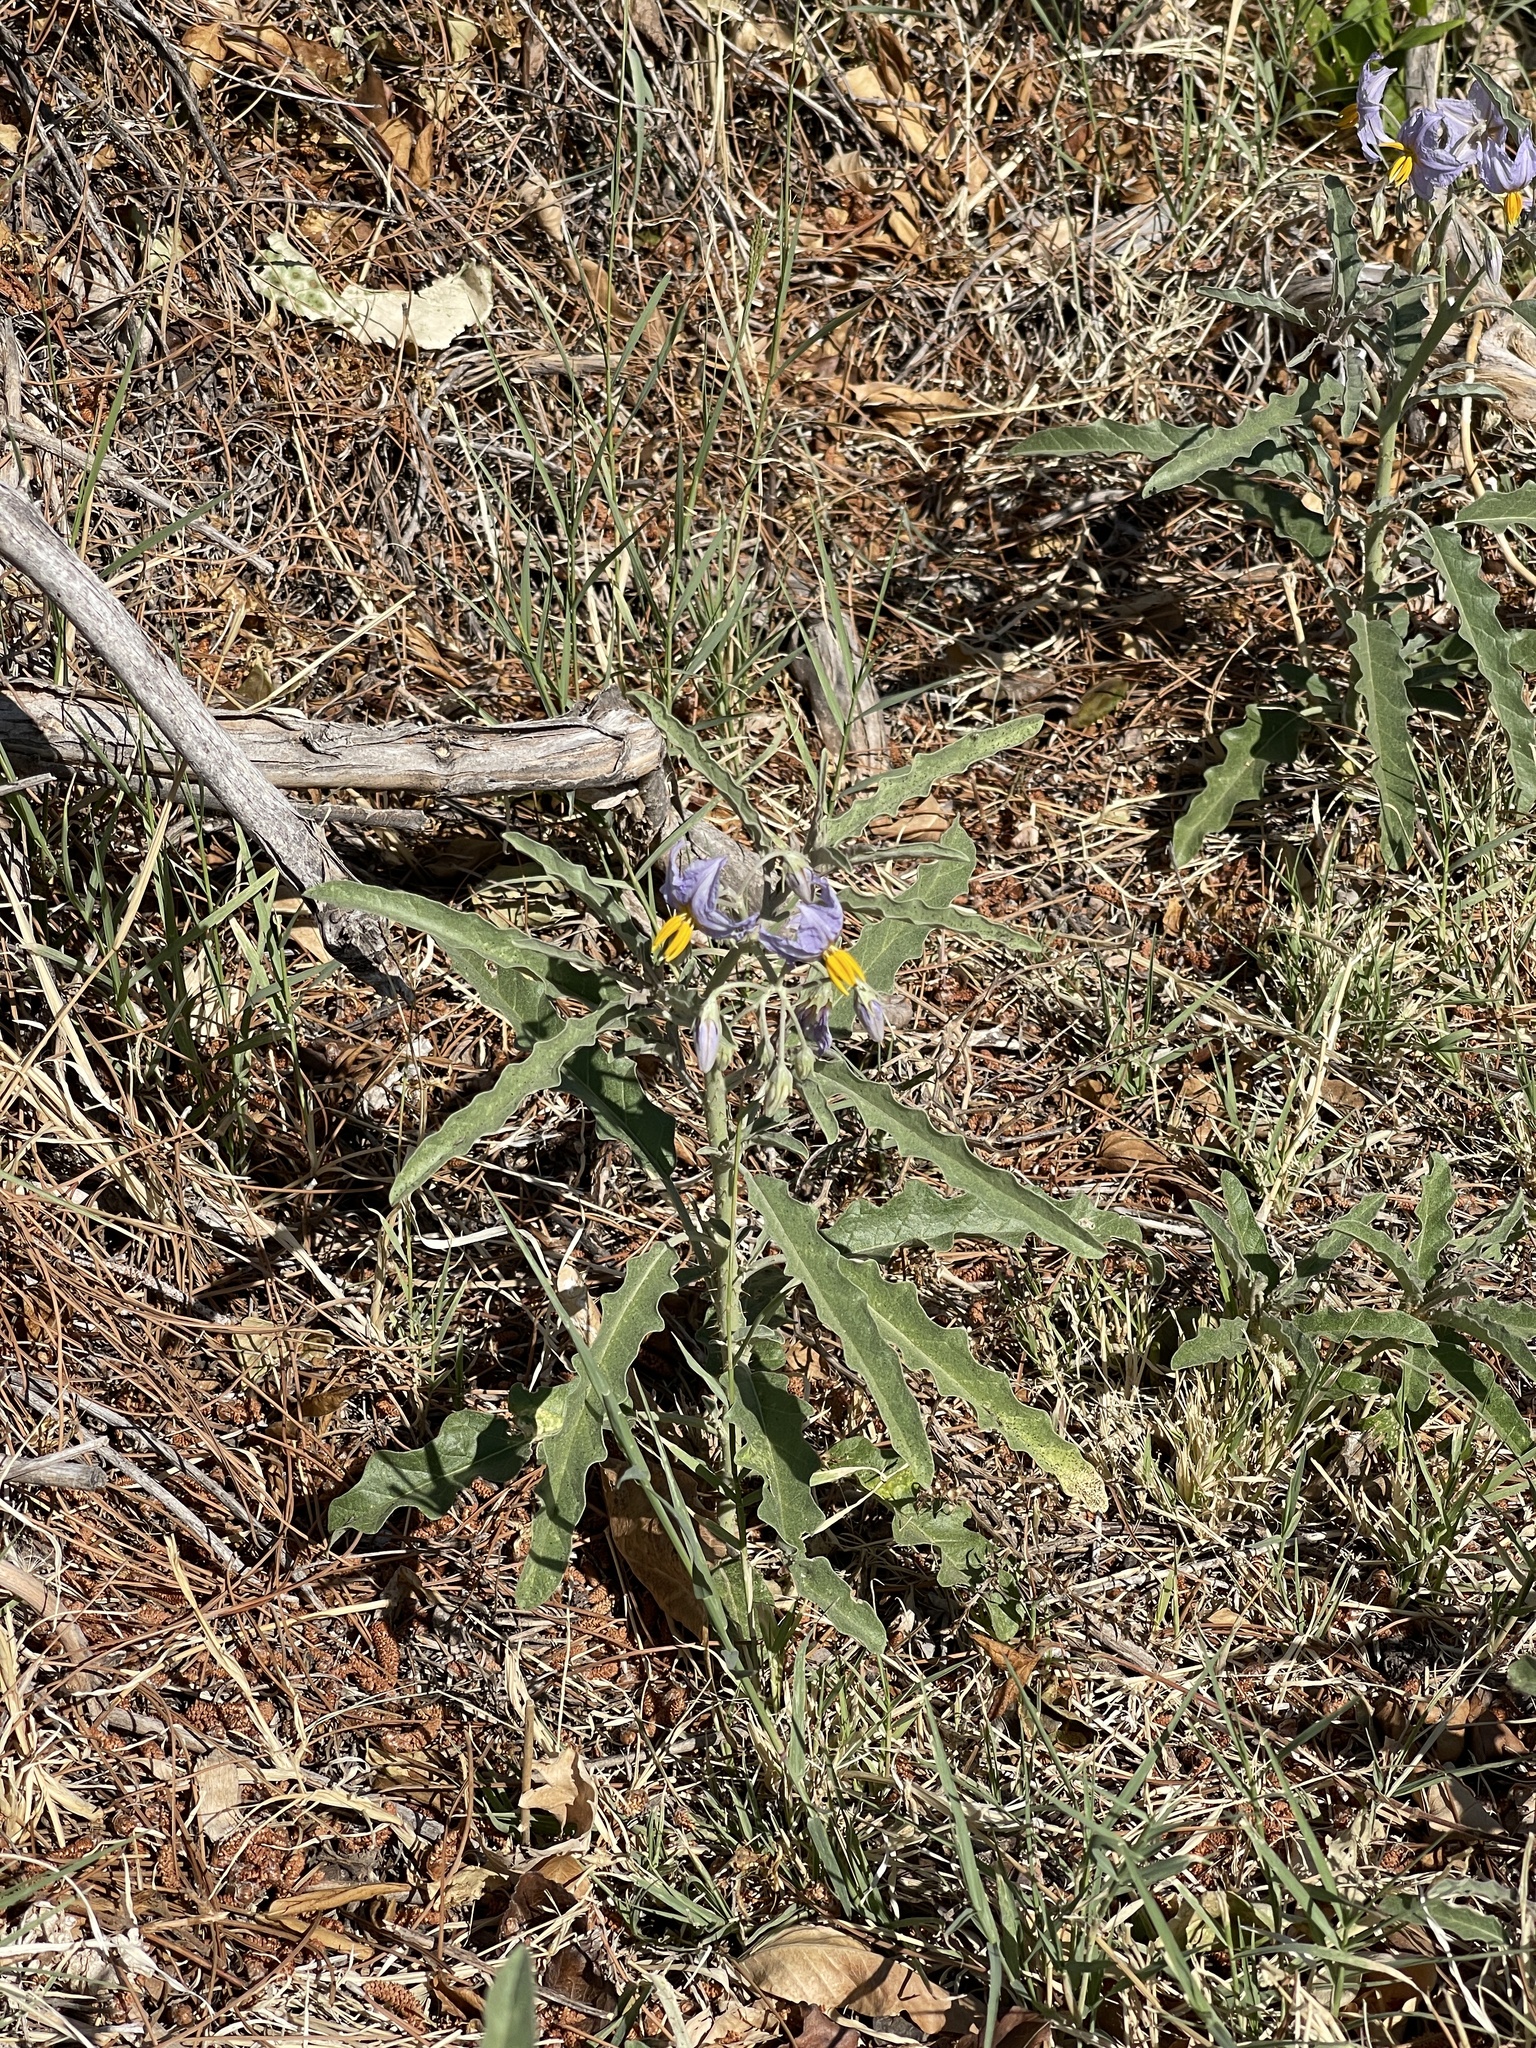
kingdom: Plantae
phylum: Tracheophyta
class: Magnoliopsida
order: Solanales
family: Solanaceae
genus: Solanum
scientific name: Solanum elaeagnifolium
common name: Silverleaf nightshade
